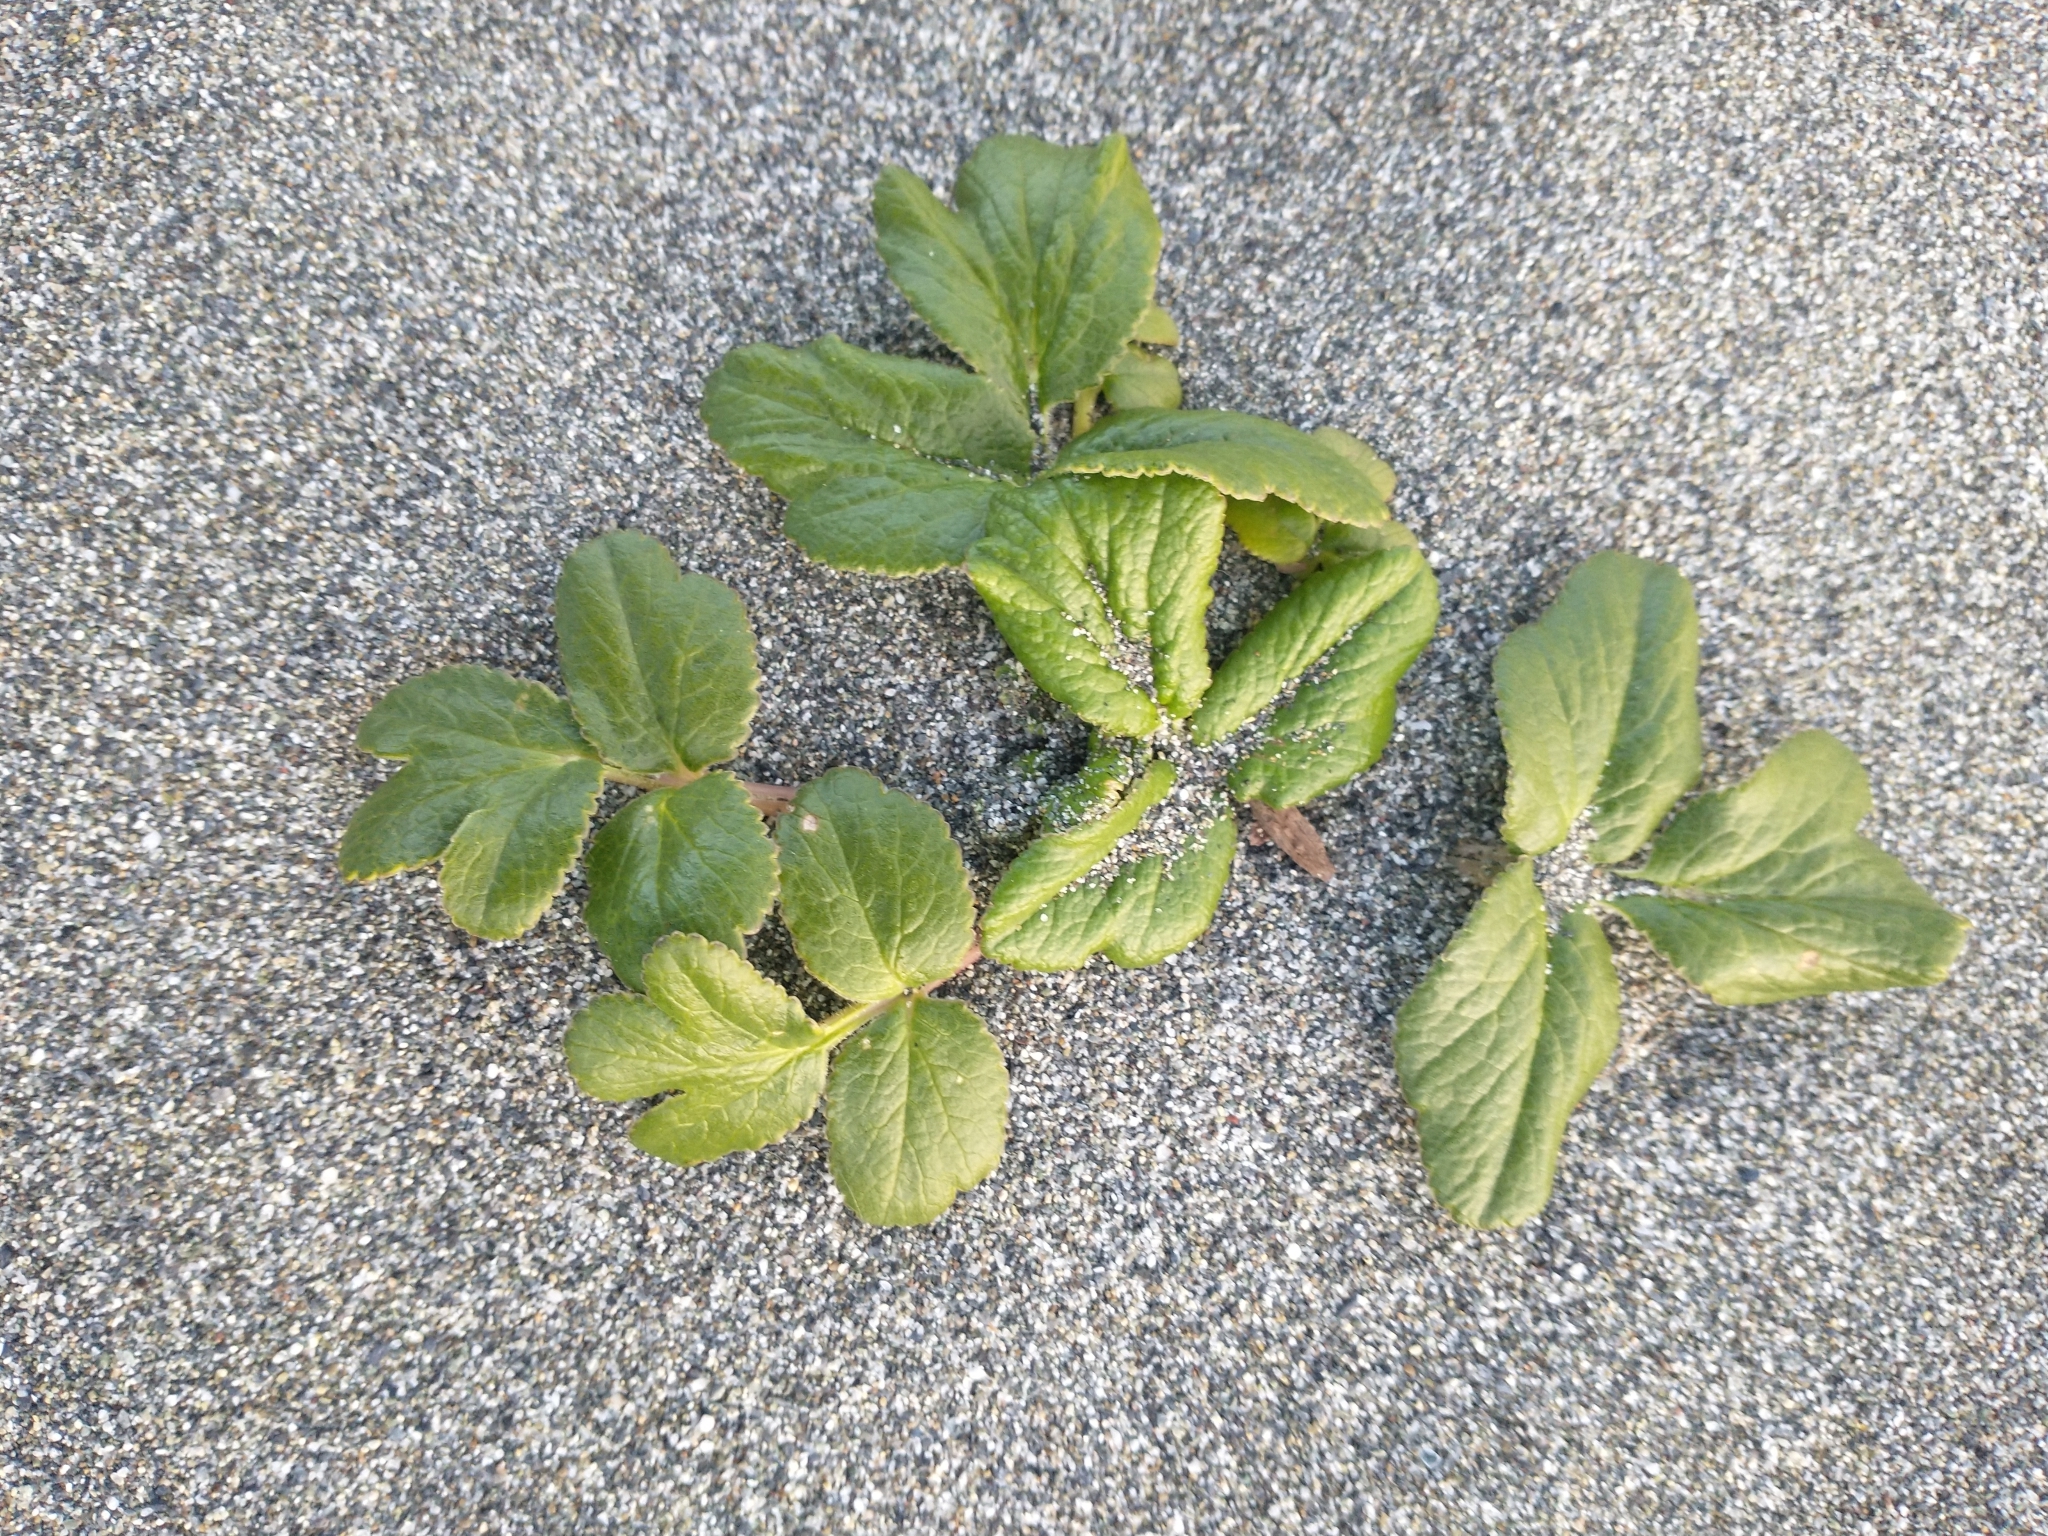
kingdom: Plantae
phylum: Tracheophyta
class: Magnoliopsida
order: Apiales
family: Apiaceae
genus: Glehnia
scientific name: Glehnia littoralis
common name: Beach silvertop
